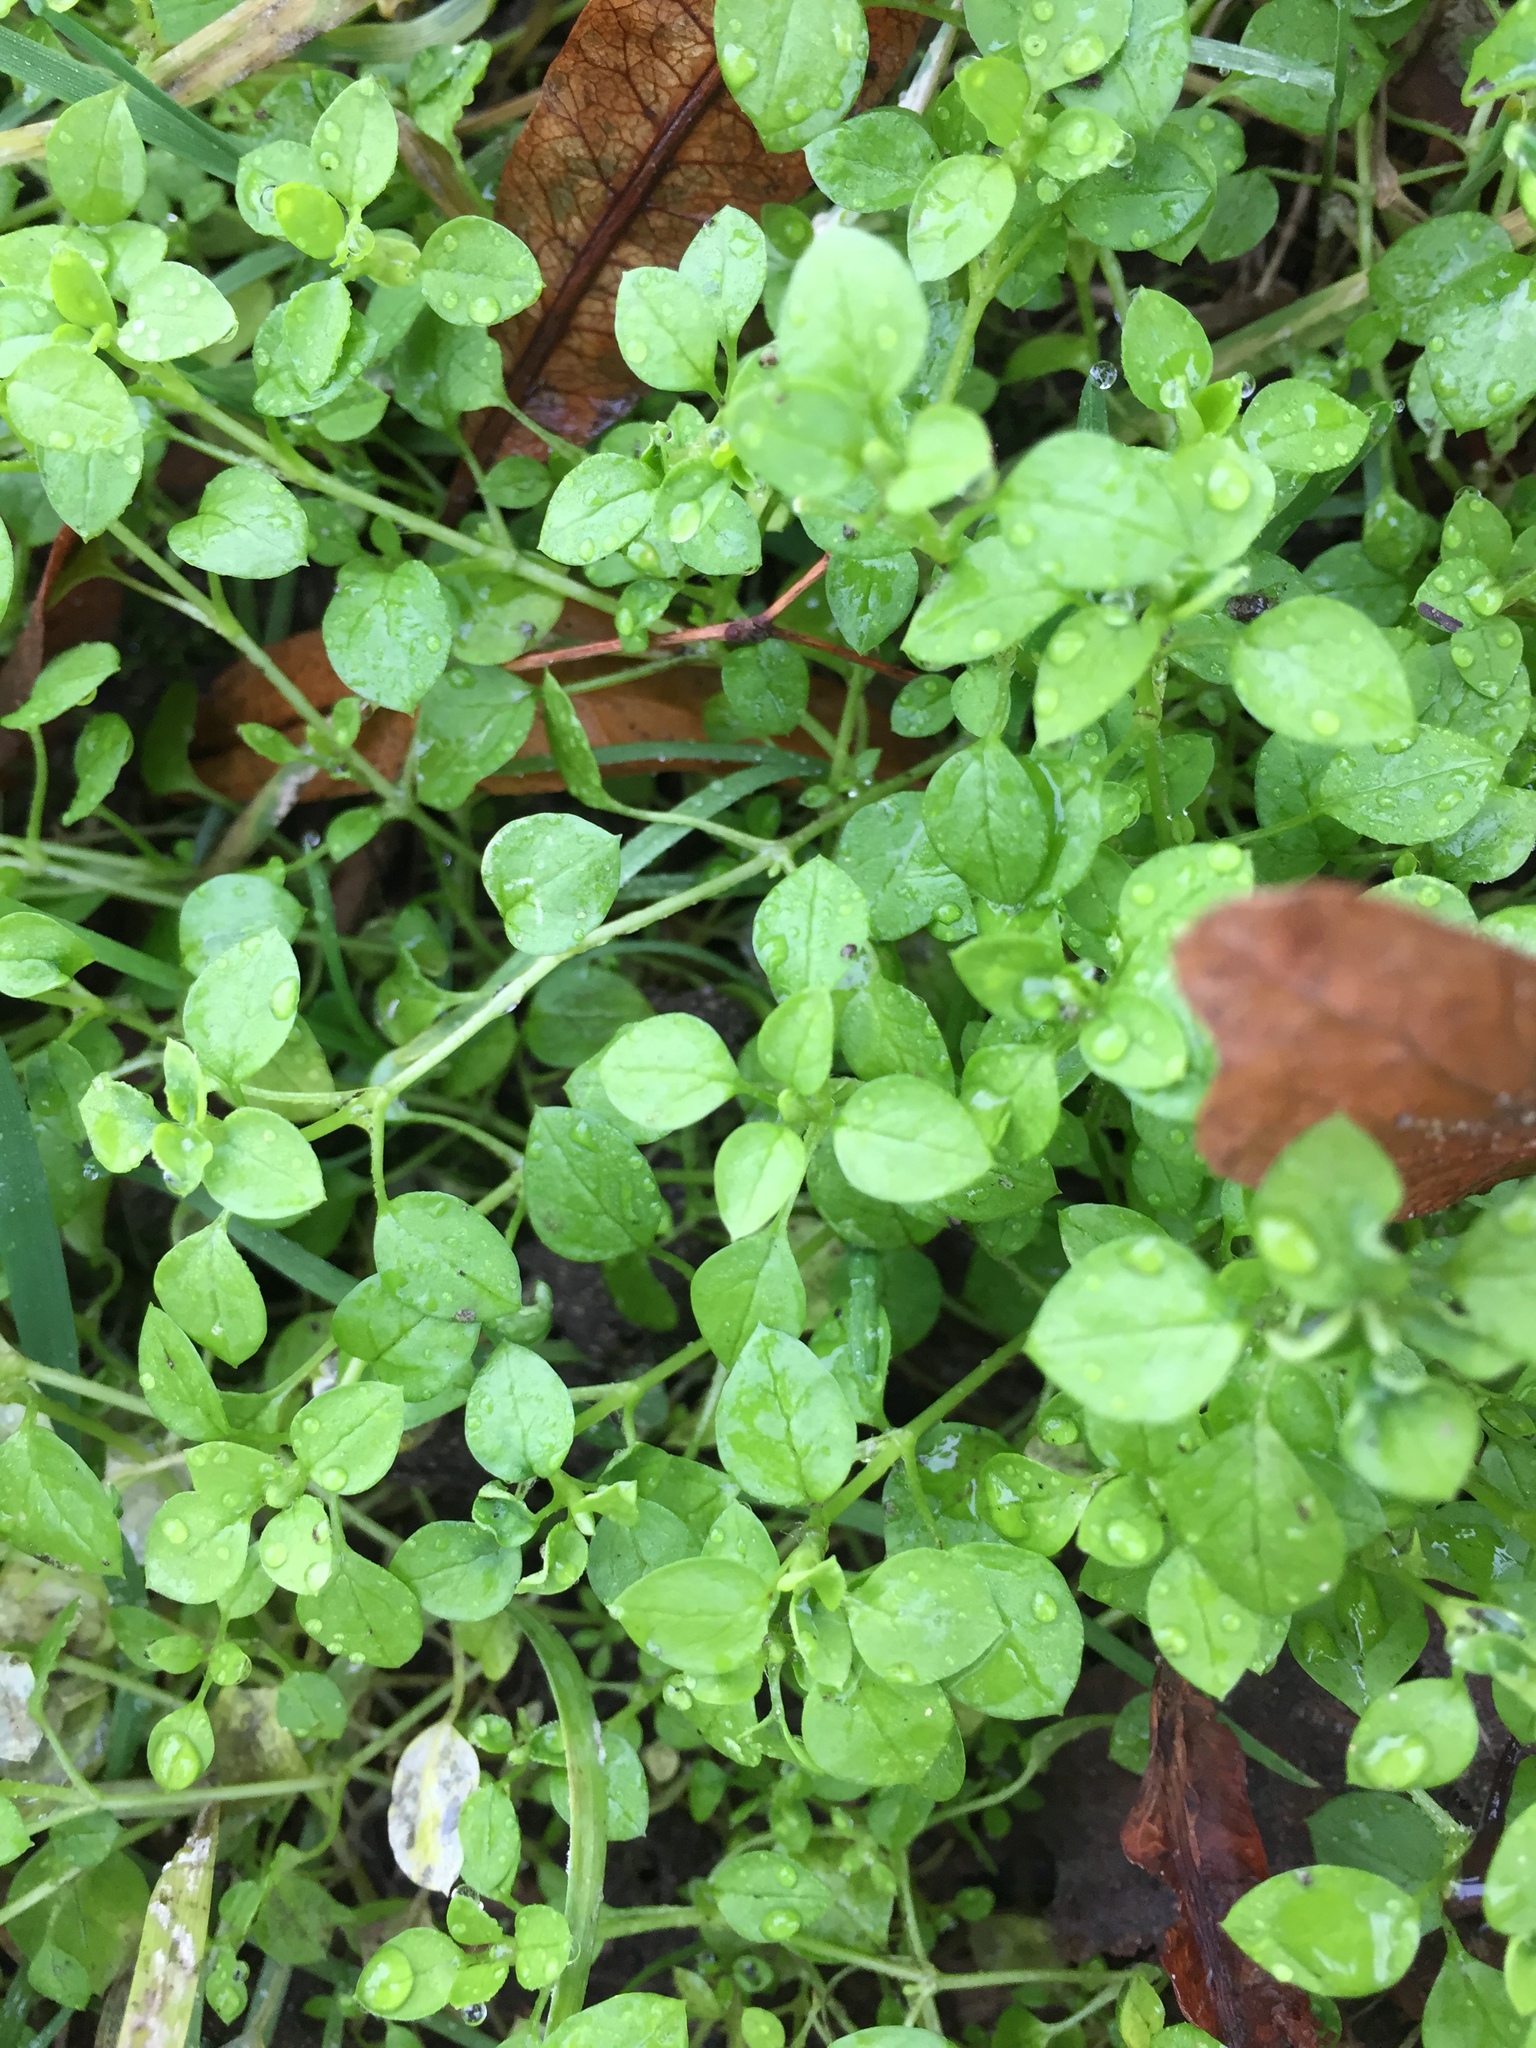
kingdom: Plantae
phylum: Tracheophyta
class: Magnoliopsida
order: Caryophyllales
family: Caryophyllaceae
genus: Stellaria
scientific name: Stellaria media
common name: Common chickweed
